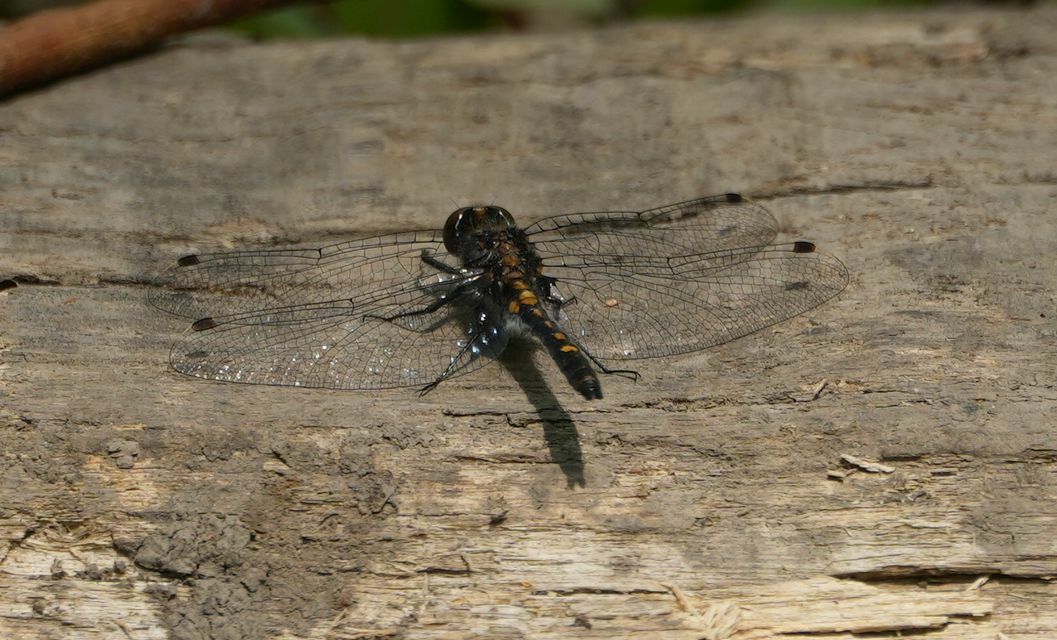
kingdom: Animalia
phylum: Arthropoda
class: Insecta
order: Odonata
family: Libellulidae
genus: Leucorrhinia
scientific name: Leucorrhinia intacta
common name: Dot-tailed whiteface
